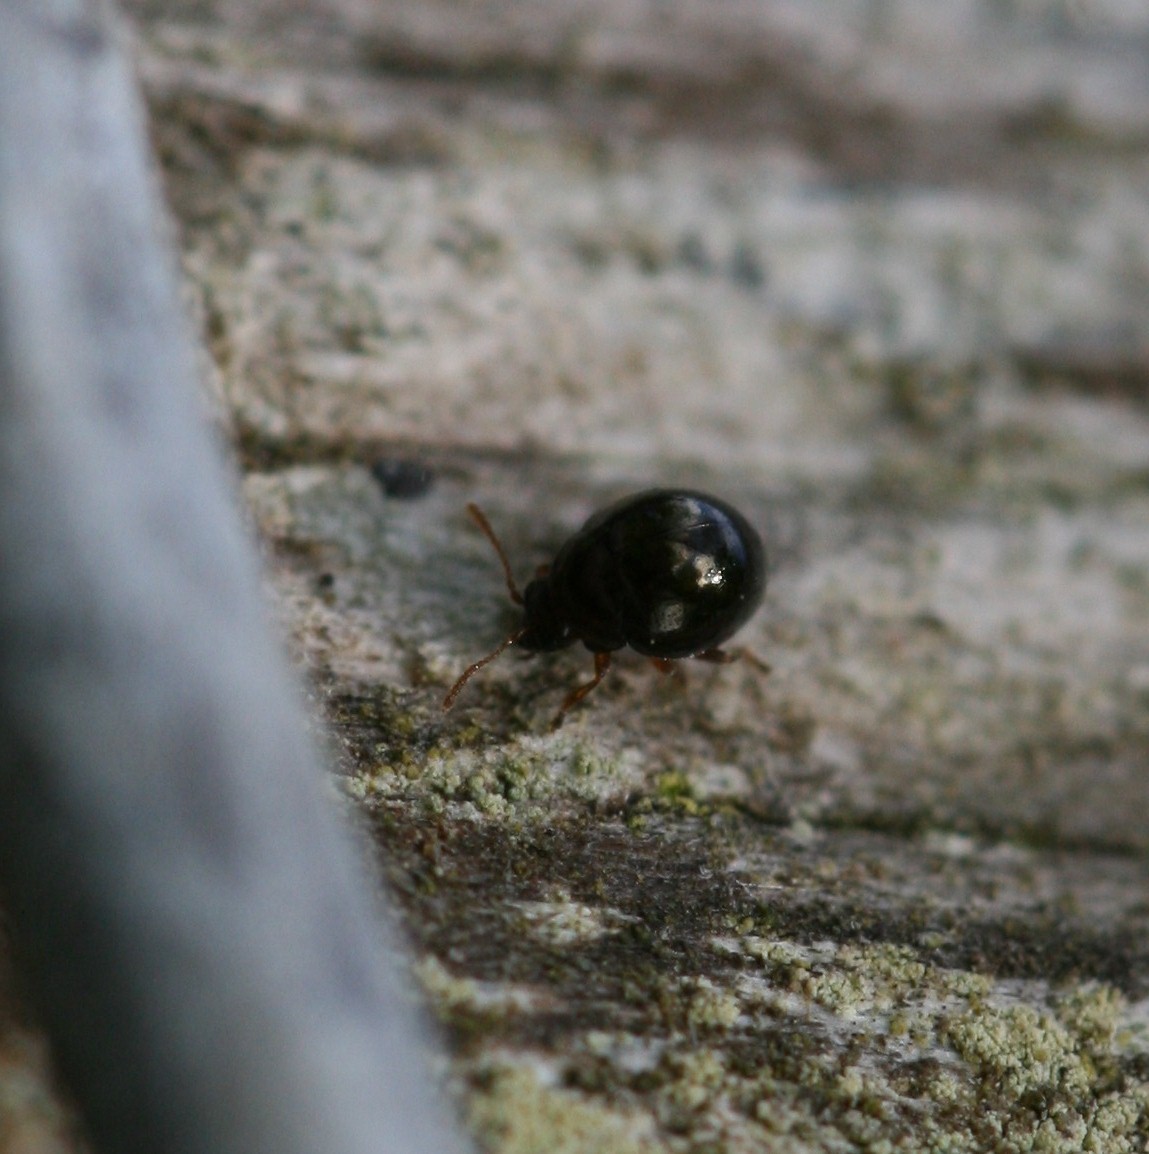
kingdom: Animalia
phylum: Arthropoda
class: Insecta
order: Coleoptera
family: Chrysomelidae
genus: Mniophila
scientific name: Mniophila muscorum
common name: Moss flea beetle
